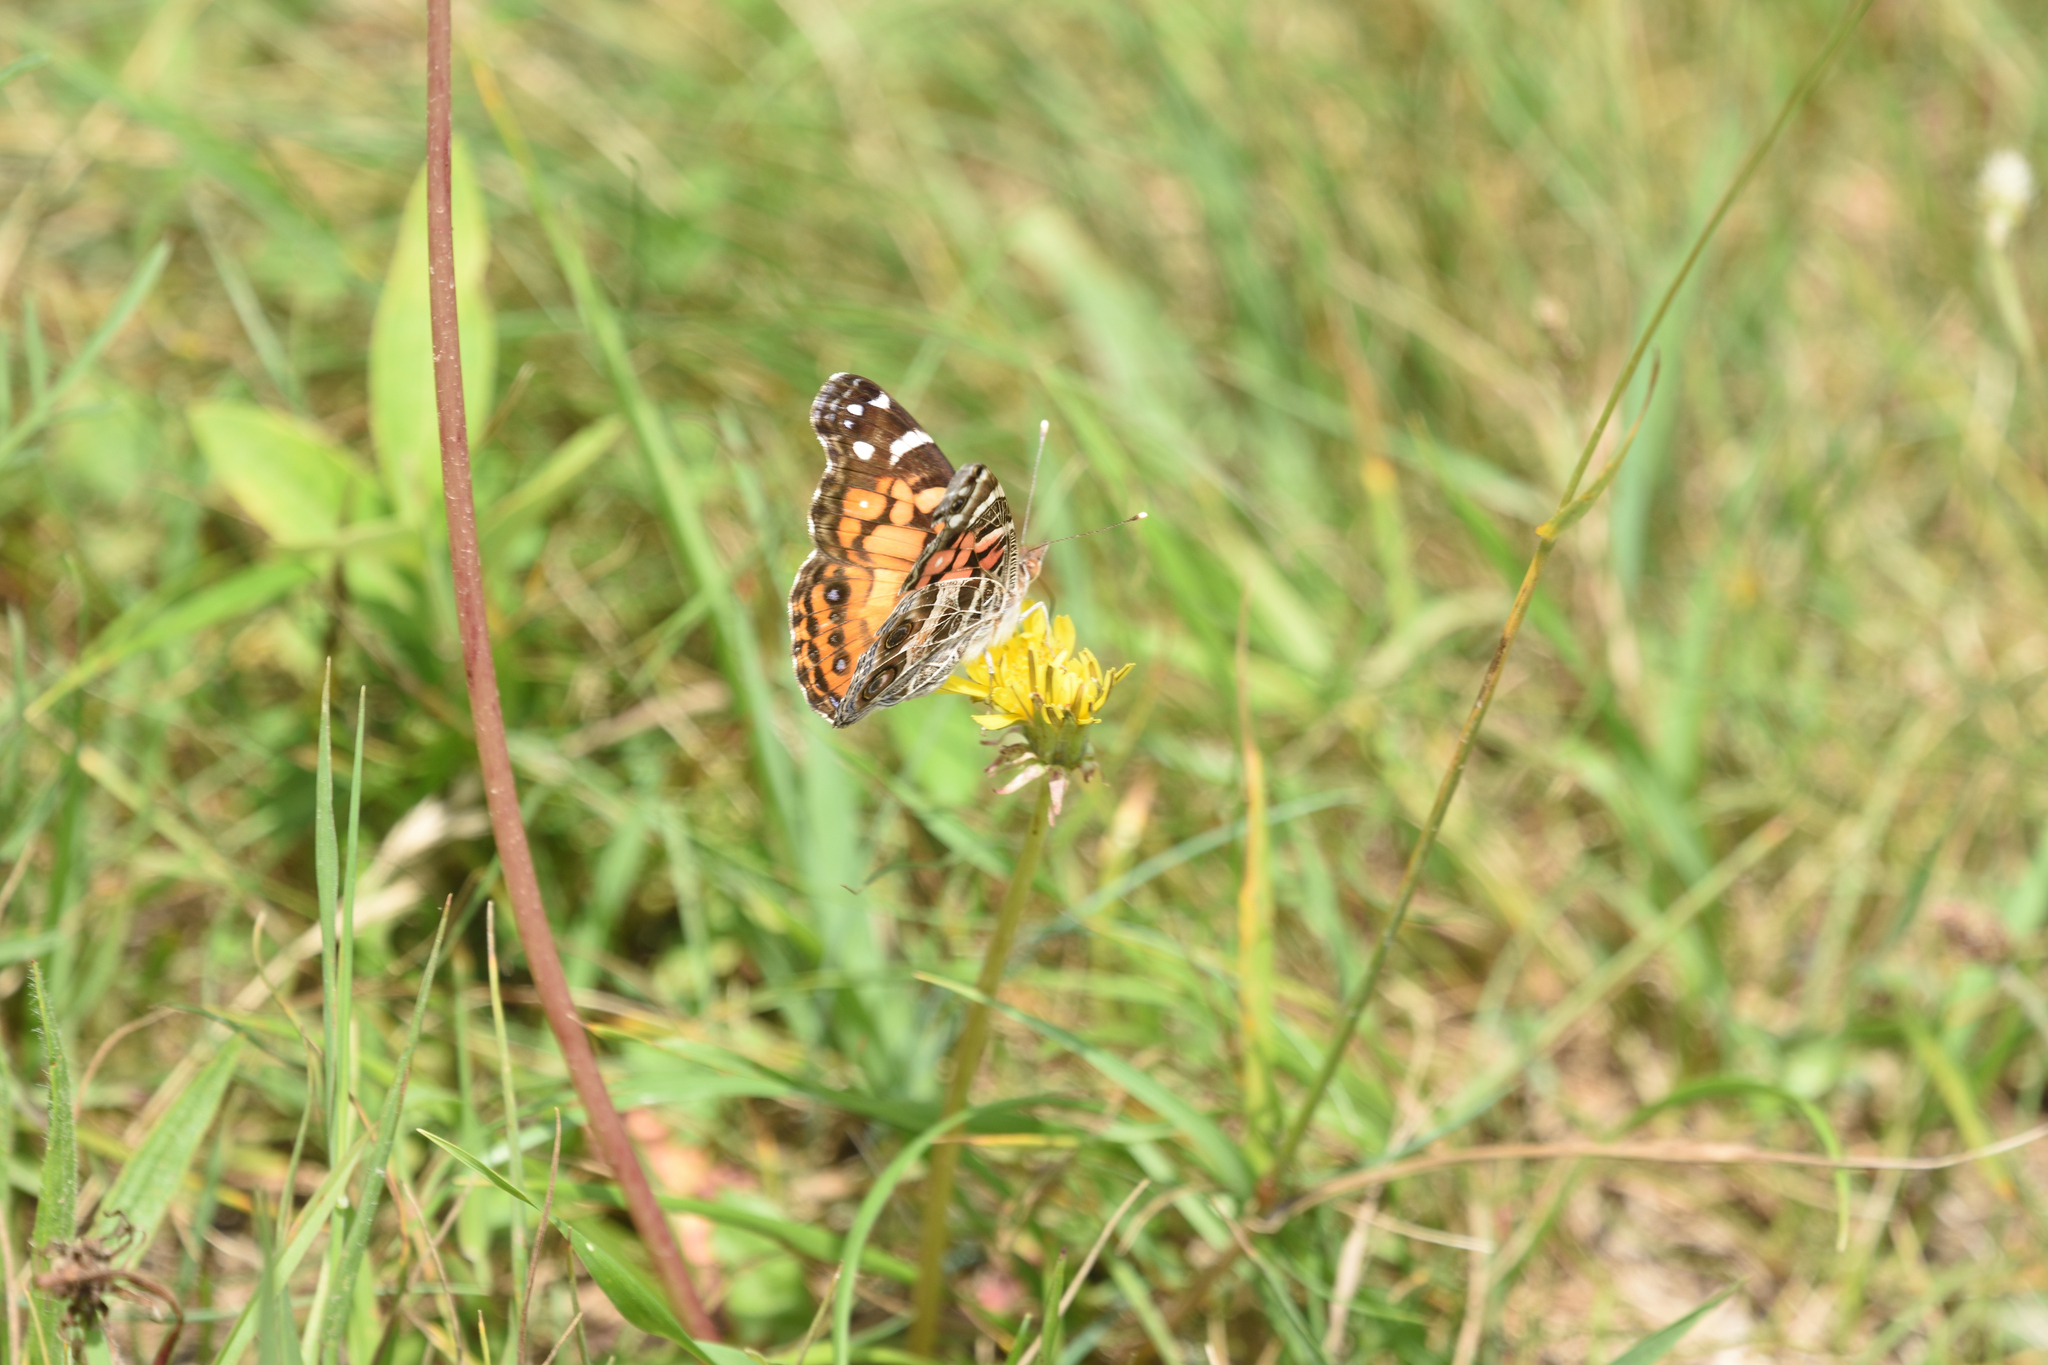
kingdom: Animalia
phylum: Arthropoda
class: Insecta
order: Lepidoptera
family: Nymphalidae
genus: Vanessa
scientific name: Vanessa virginiensis
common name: American lady
